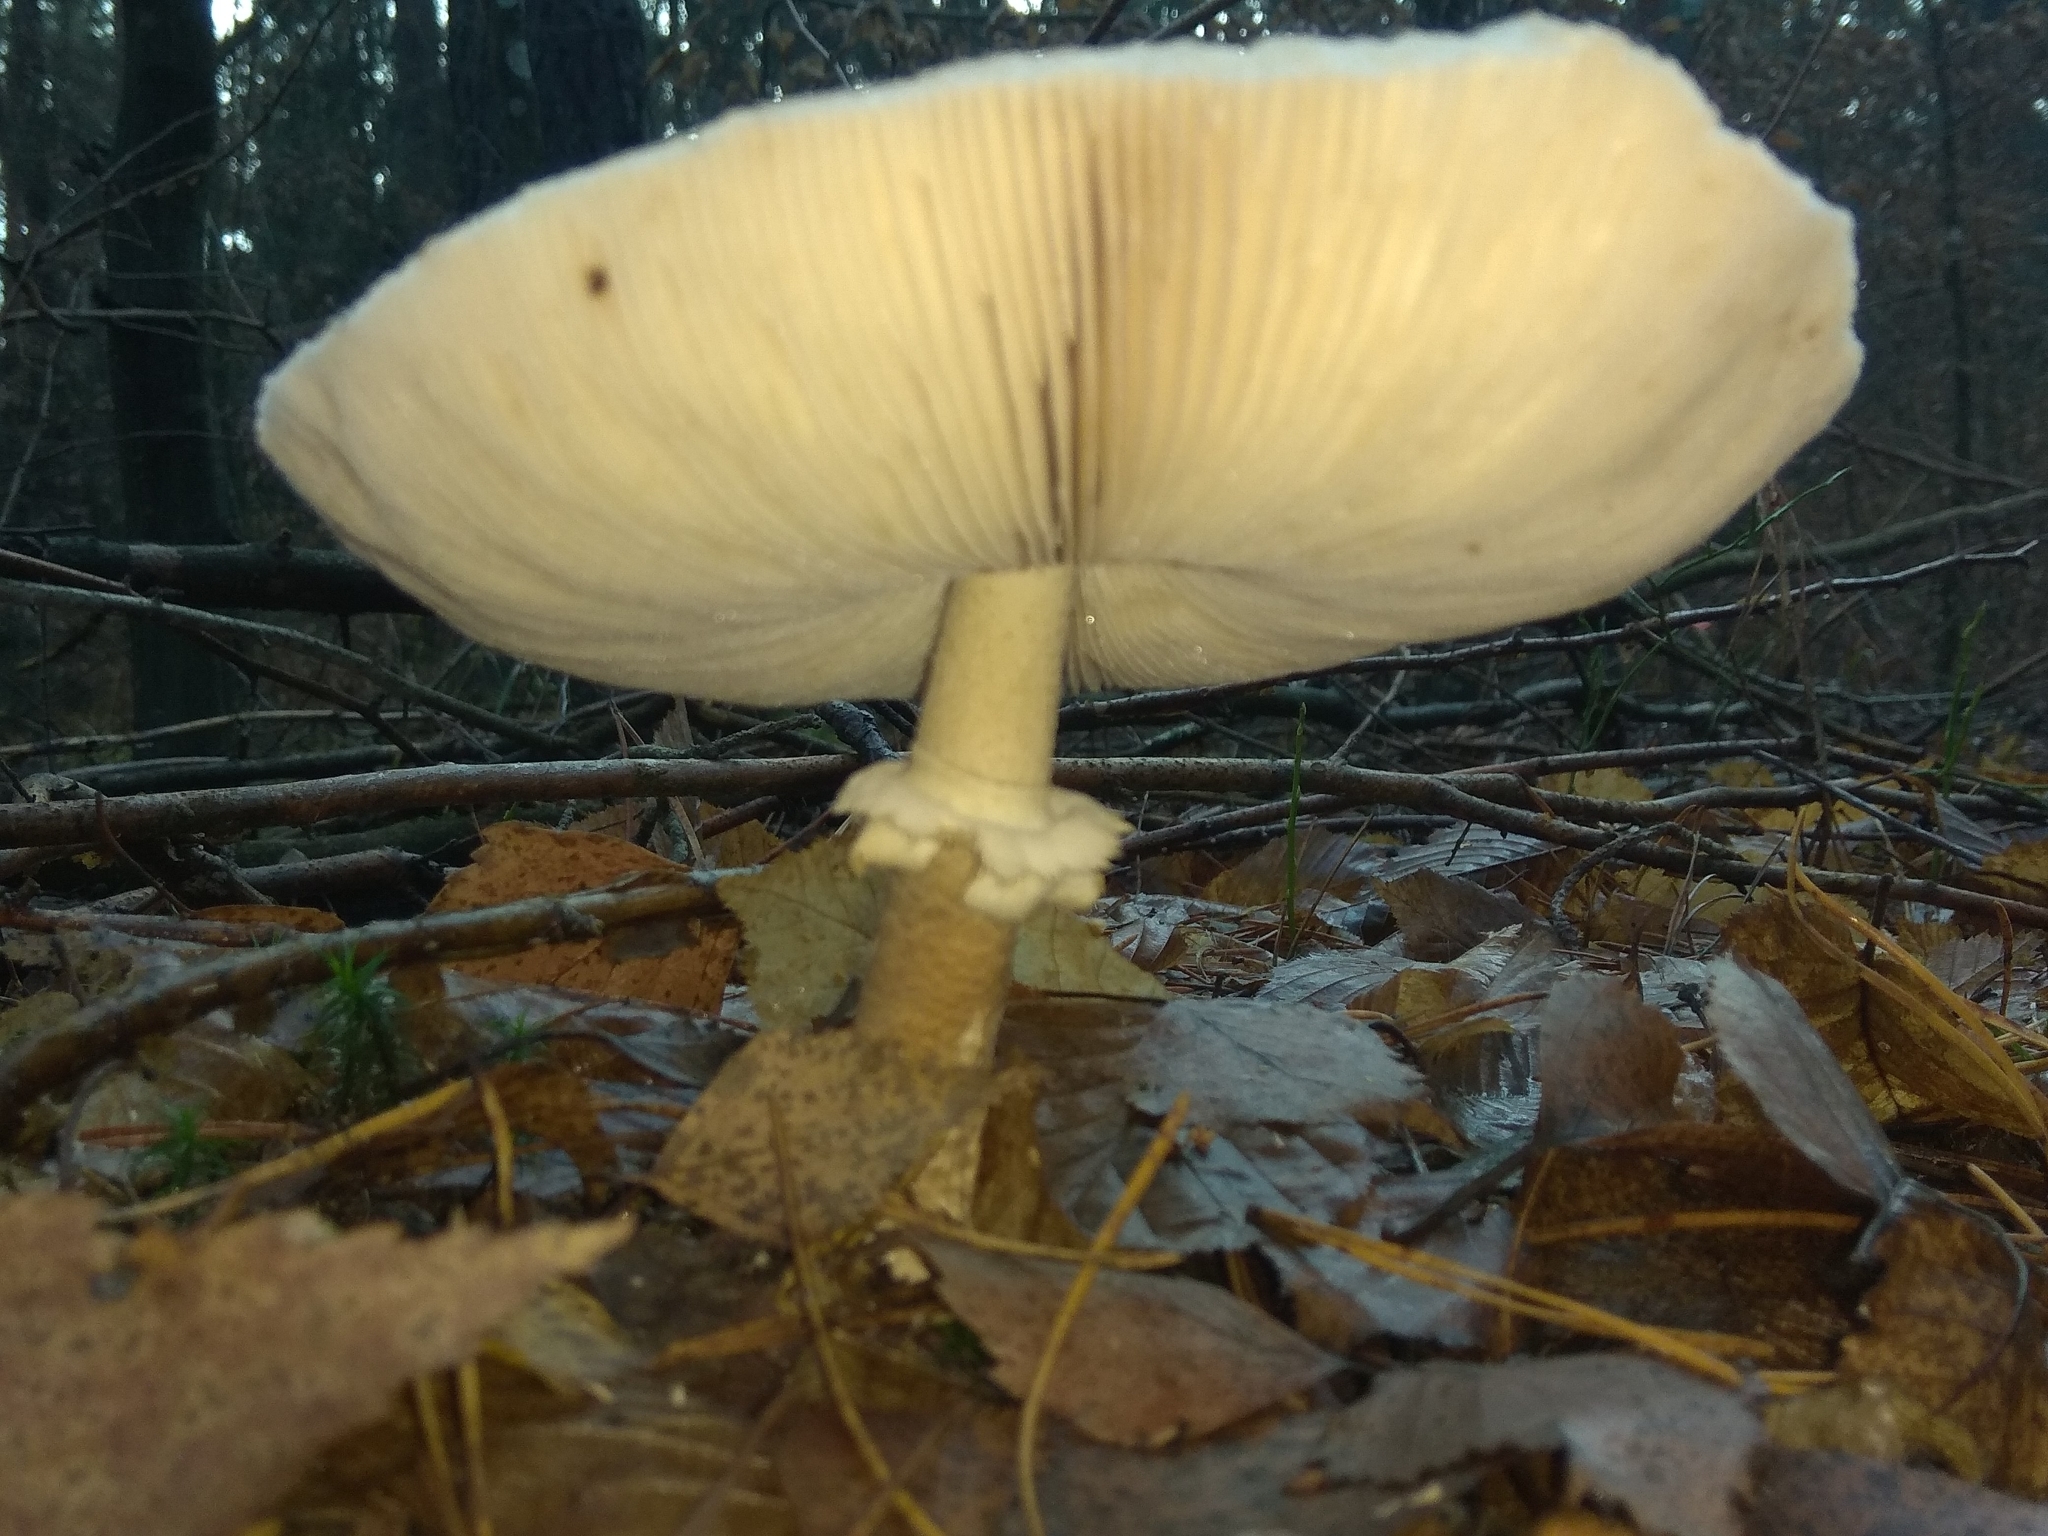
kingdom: Fungi
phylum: Basidiomycota
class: Agaricomycetes
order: Agaricales
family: Agaricaceae
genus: Macrolepiota
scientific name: Macrolepiota procera
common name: Parasol
